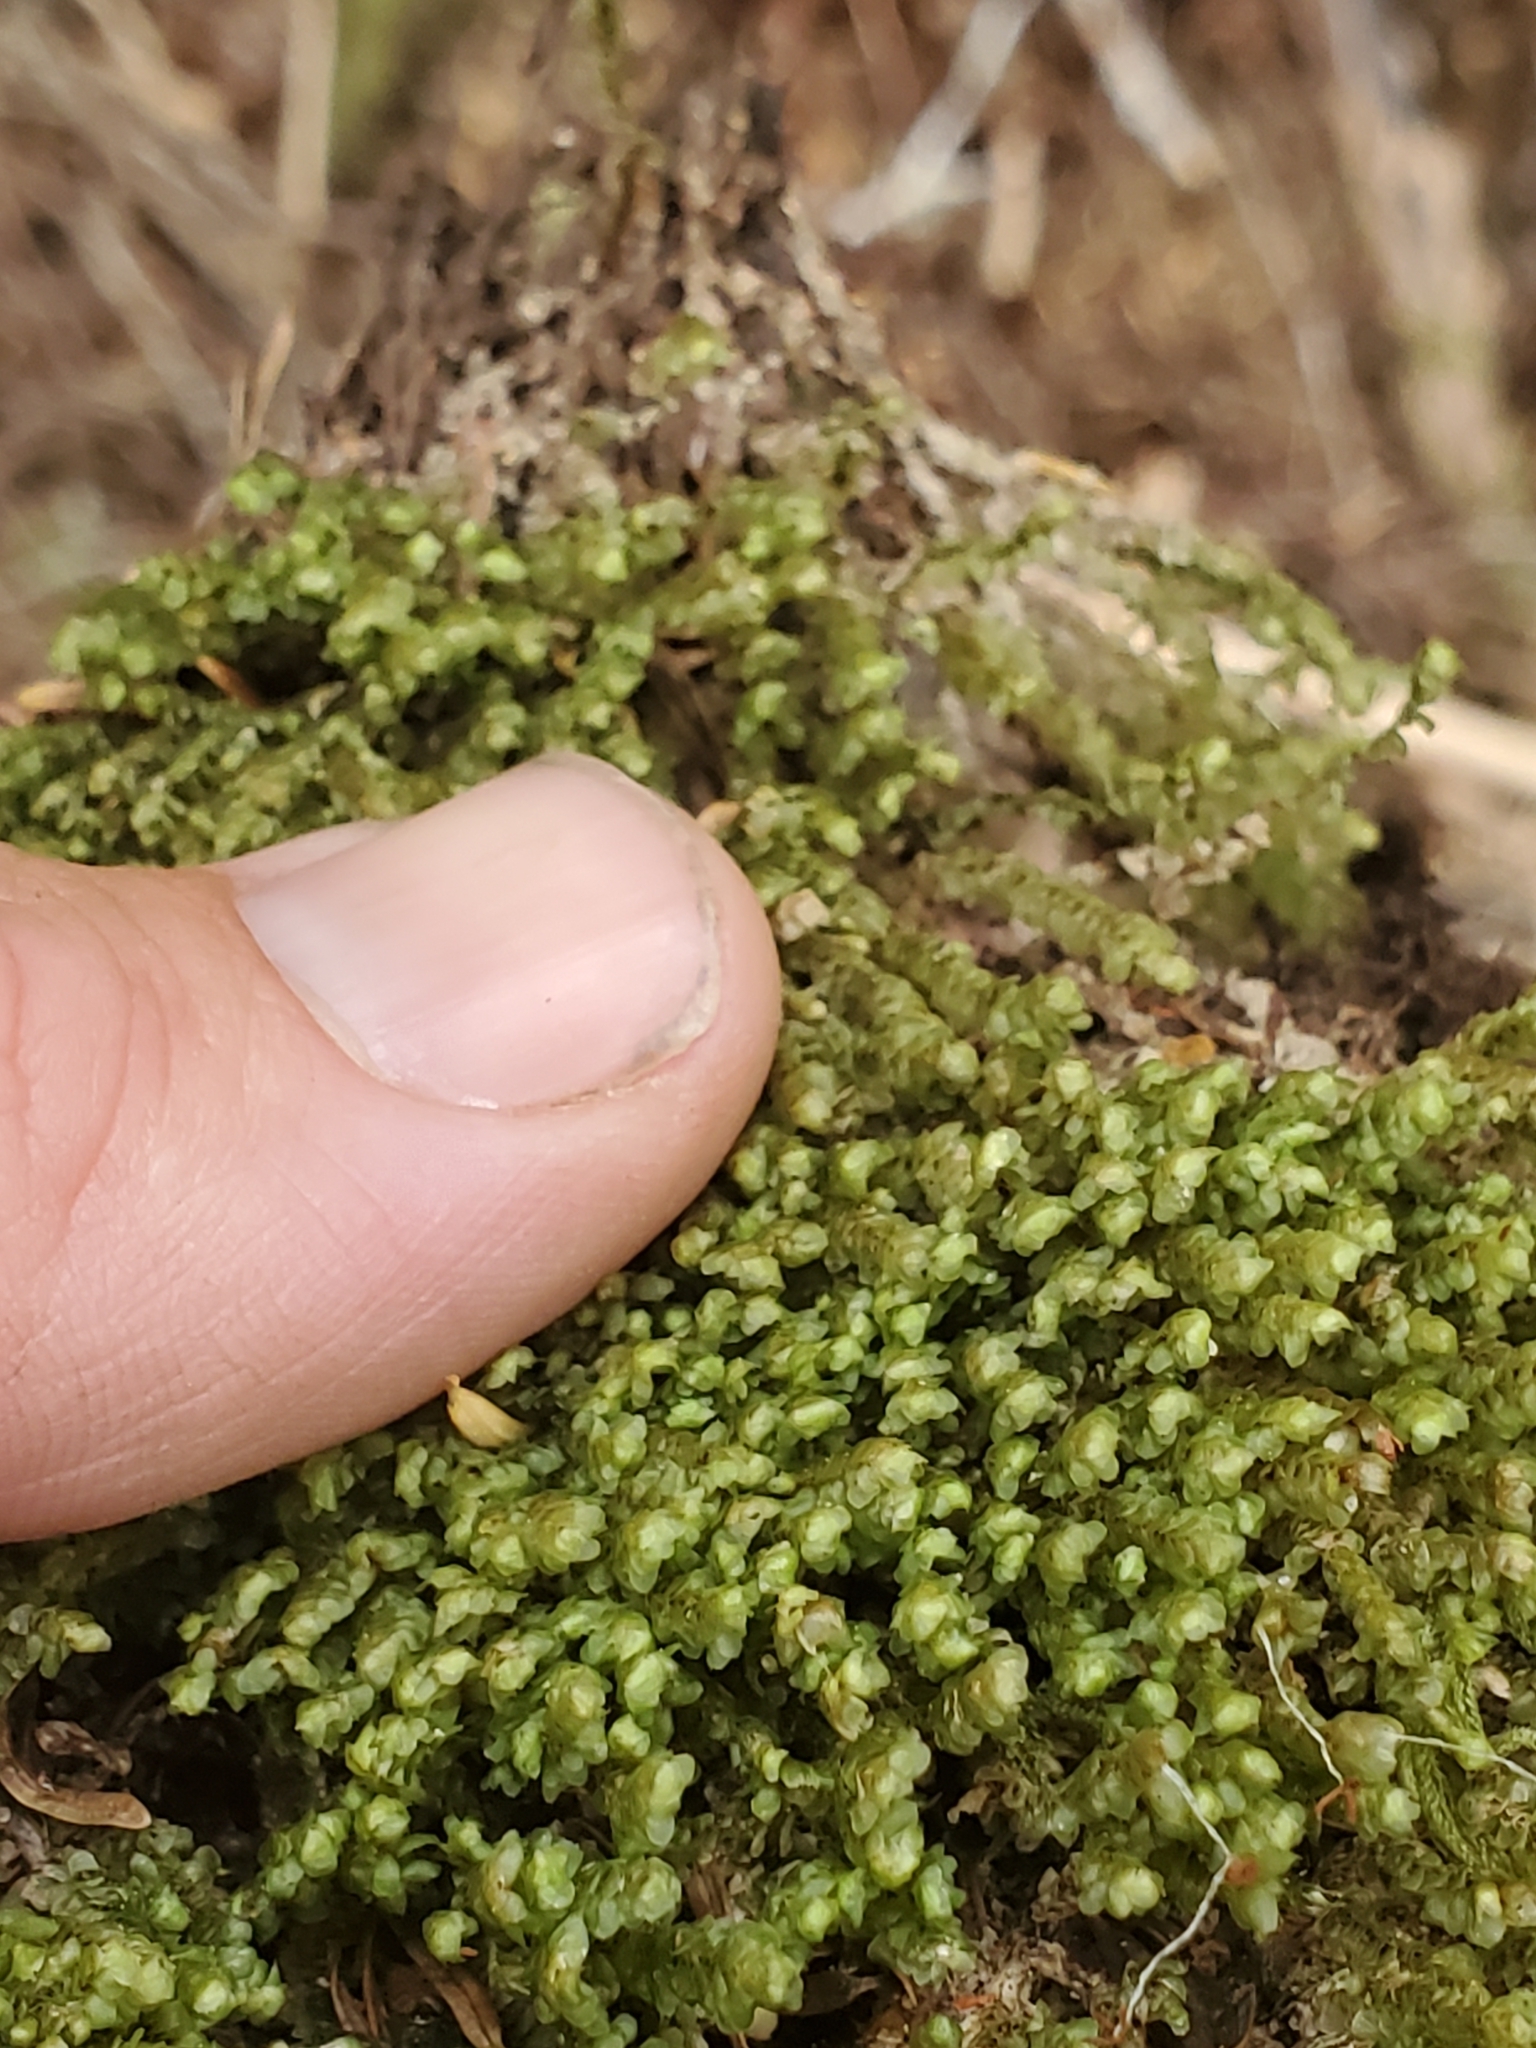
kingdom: Plantae
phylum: Marchantiophyta
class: Jungermanniopsida
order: Jungermanniales
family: Scapaniaceae
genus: Scapania
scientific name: Scapania bolanderi
